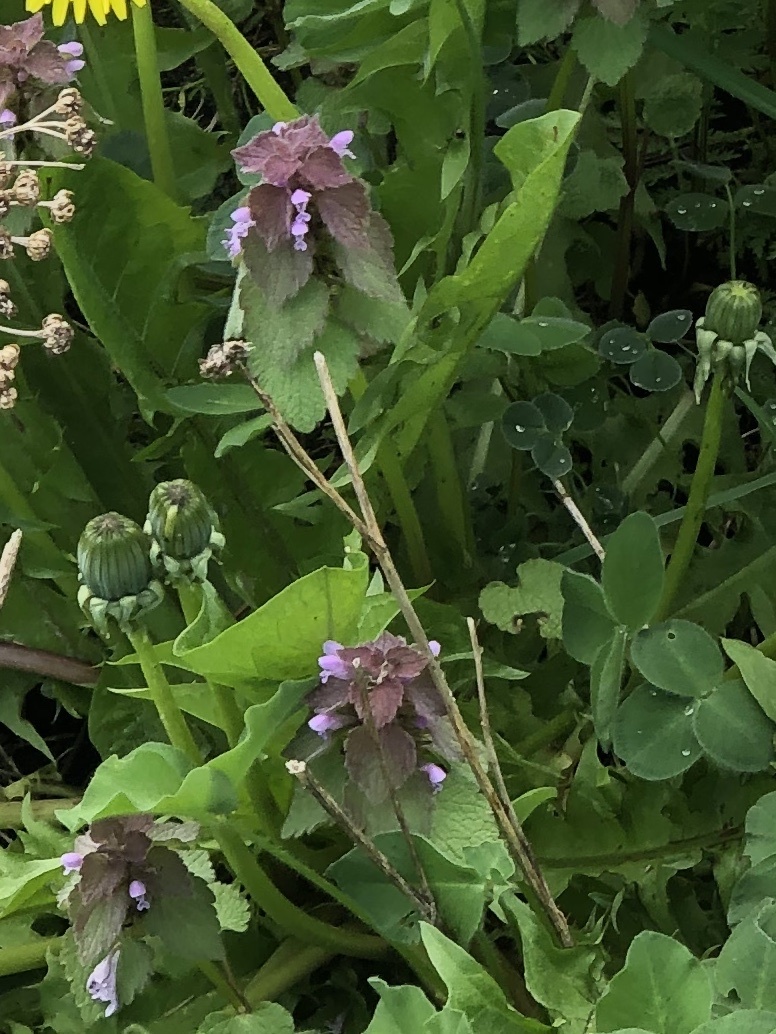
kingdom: Plantae
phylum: Tracheophyta
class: Magnoliopsida
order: Lamiales
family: Lamiaceae
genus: Lamium
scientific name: Lamium purpureum
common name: Red dead-nettle
